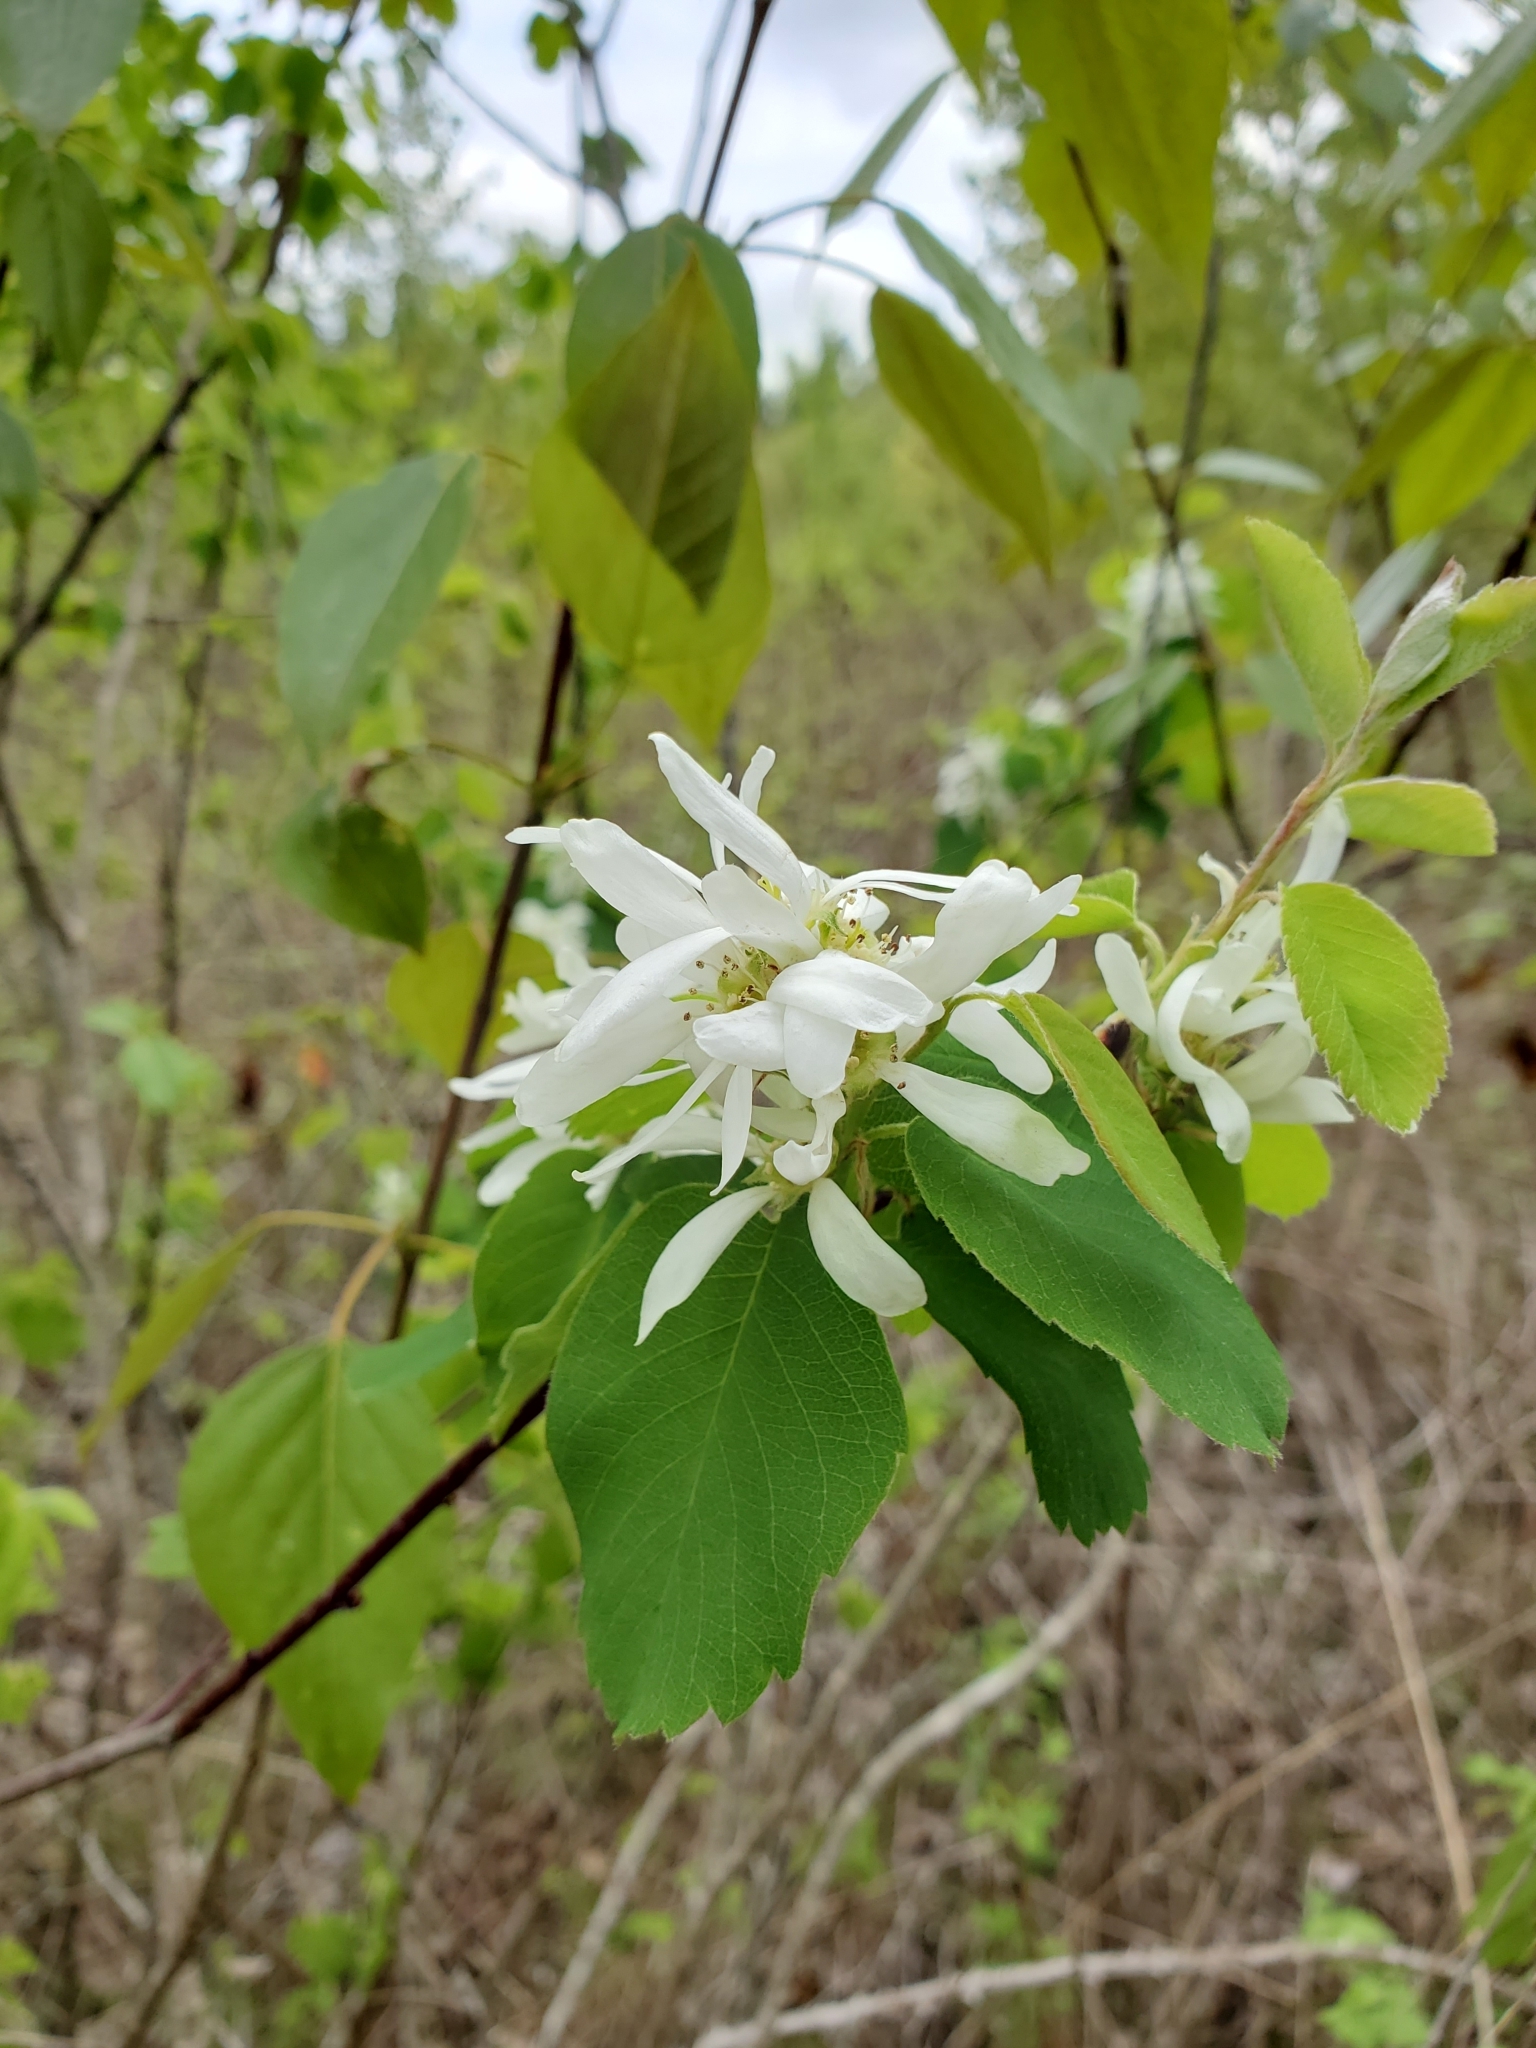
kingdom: Plantae
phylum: Tracheophyta
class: Magnoliopsida
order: Rosales
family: Rosaceae
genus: Amelanchier
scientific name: Amelanchier alnifolia
